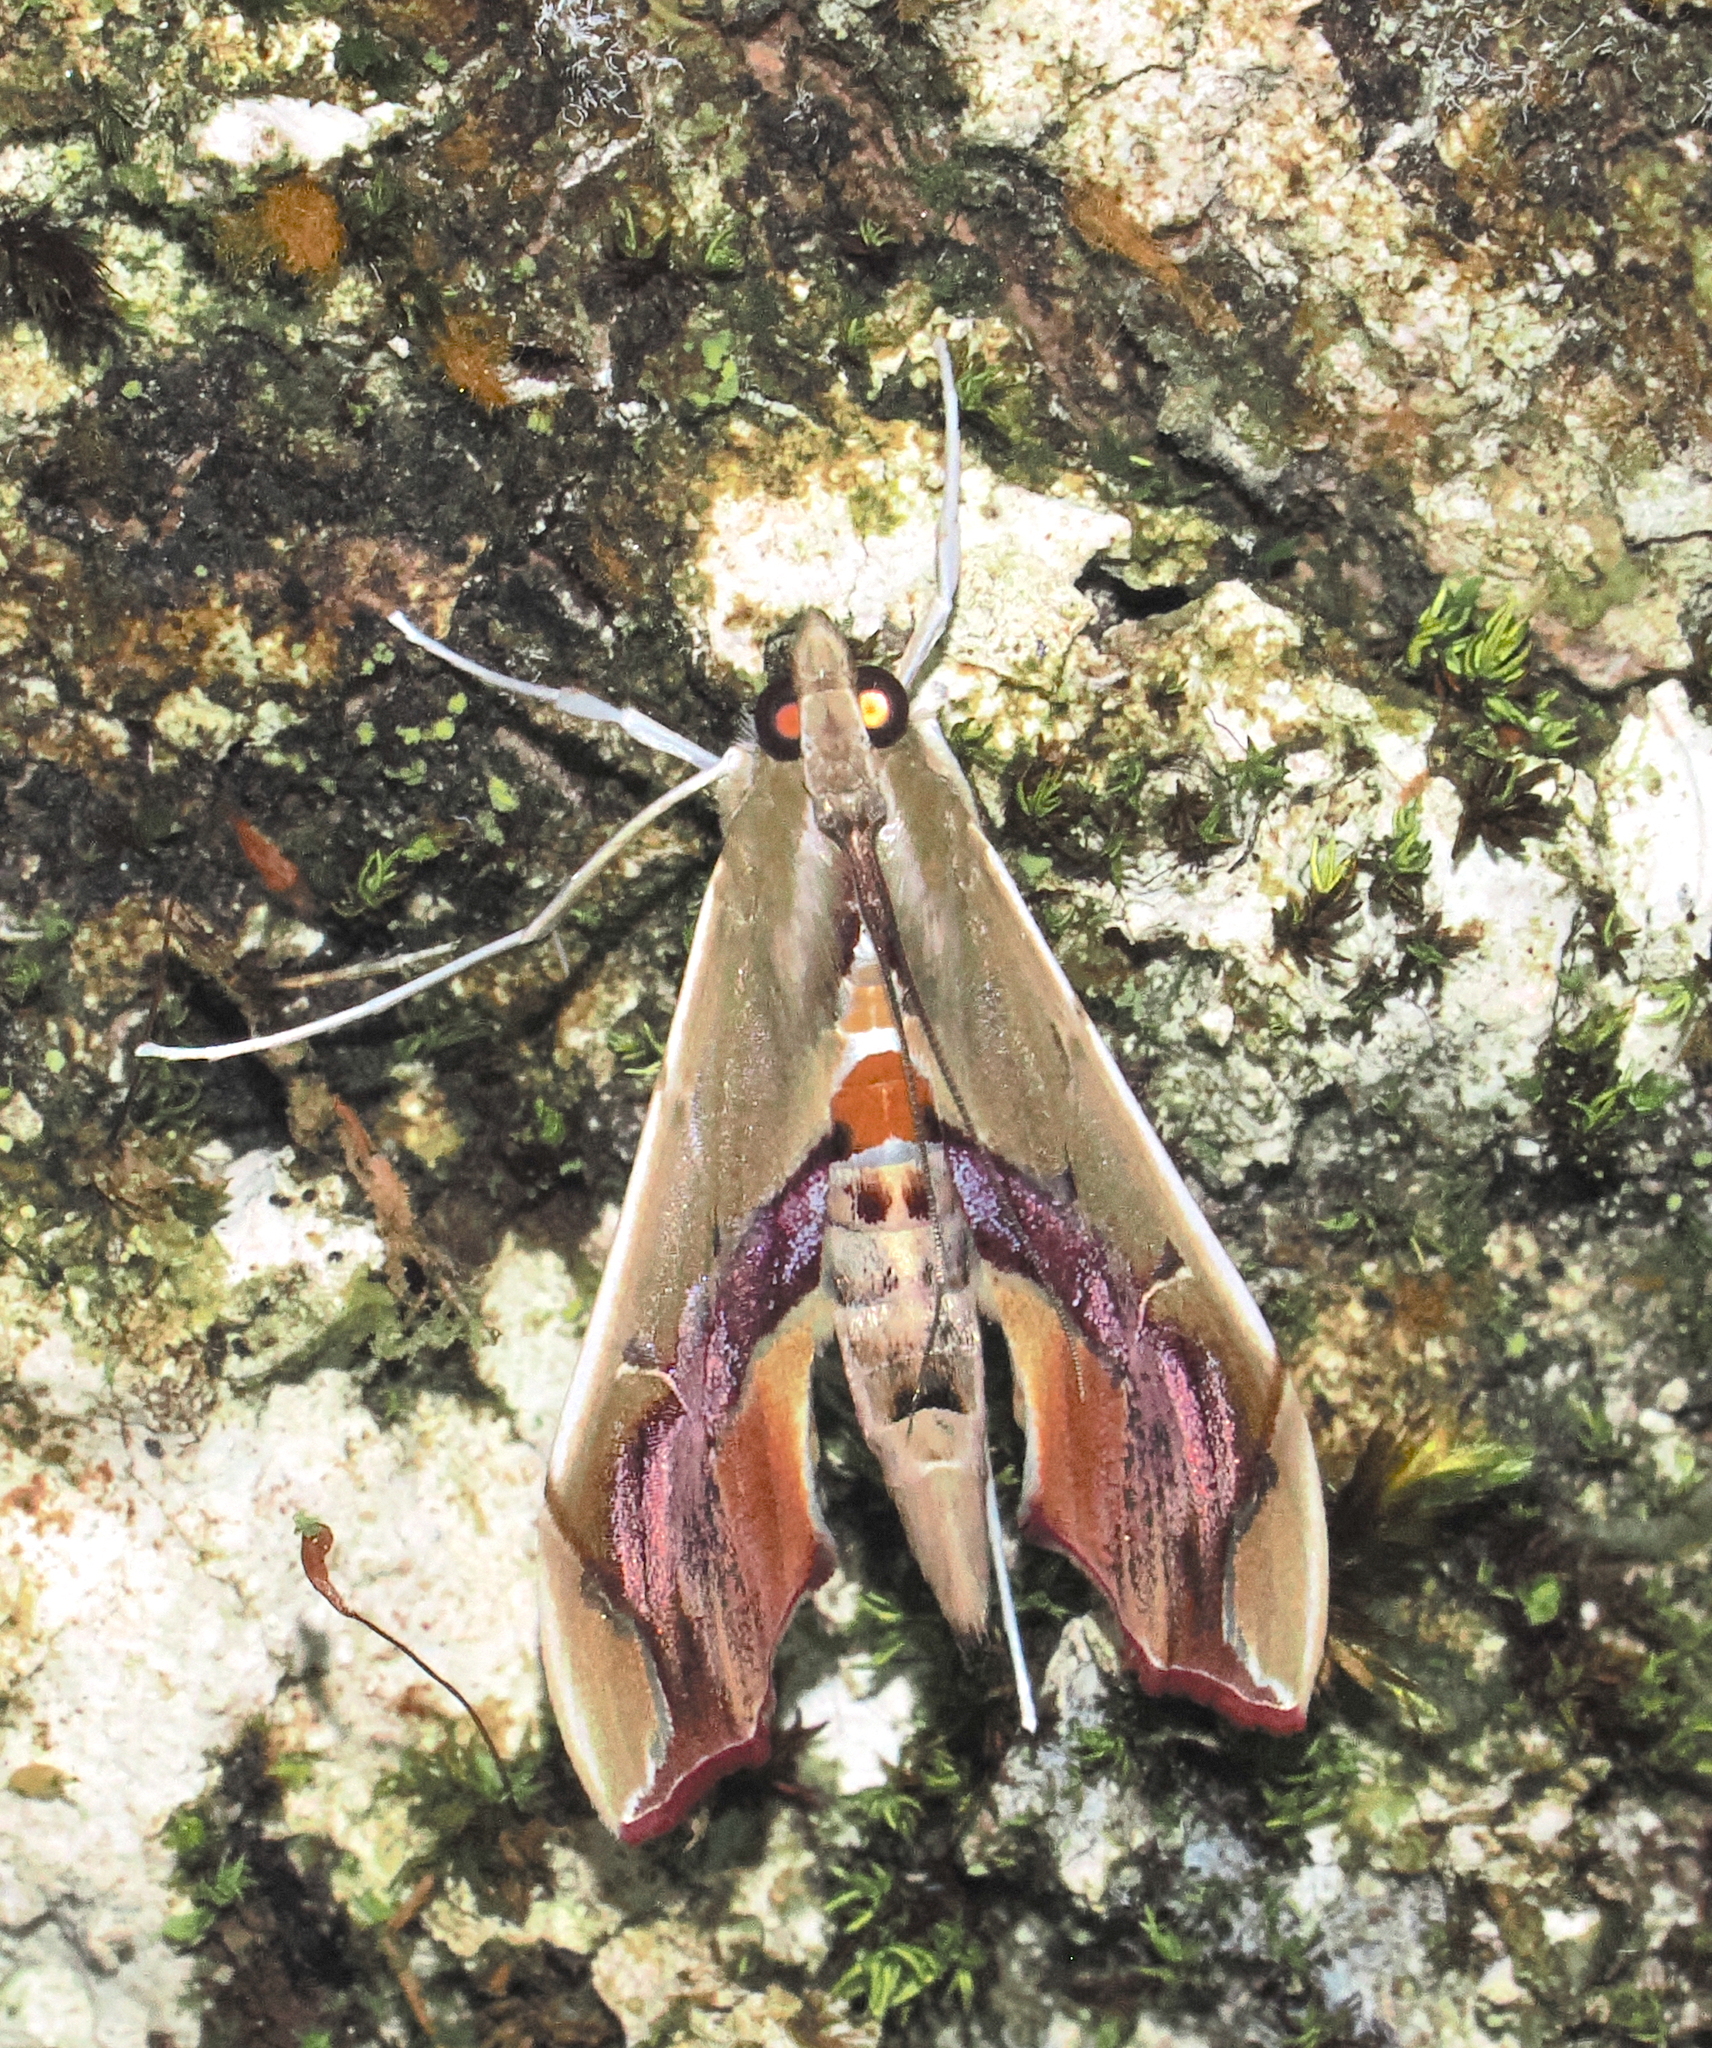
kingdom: Animalia
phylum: Arthropoda
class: Insecta
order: Lepidoptera
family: Crambidae
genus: Agathodes
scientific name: Agathodes designalis
